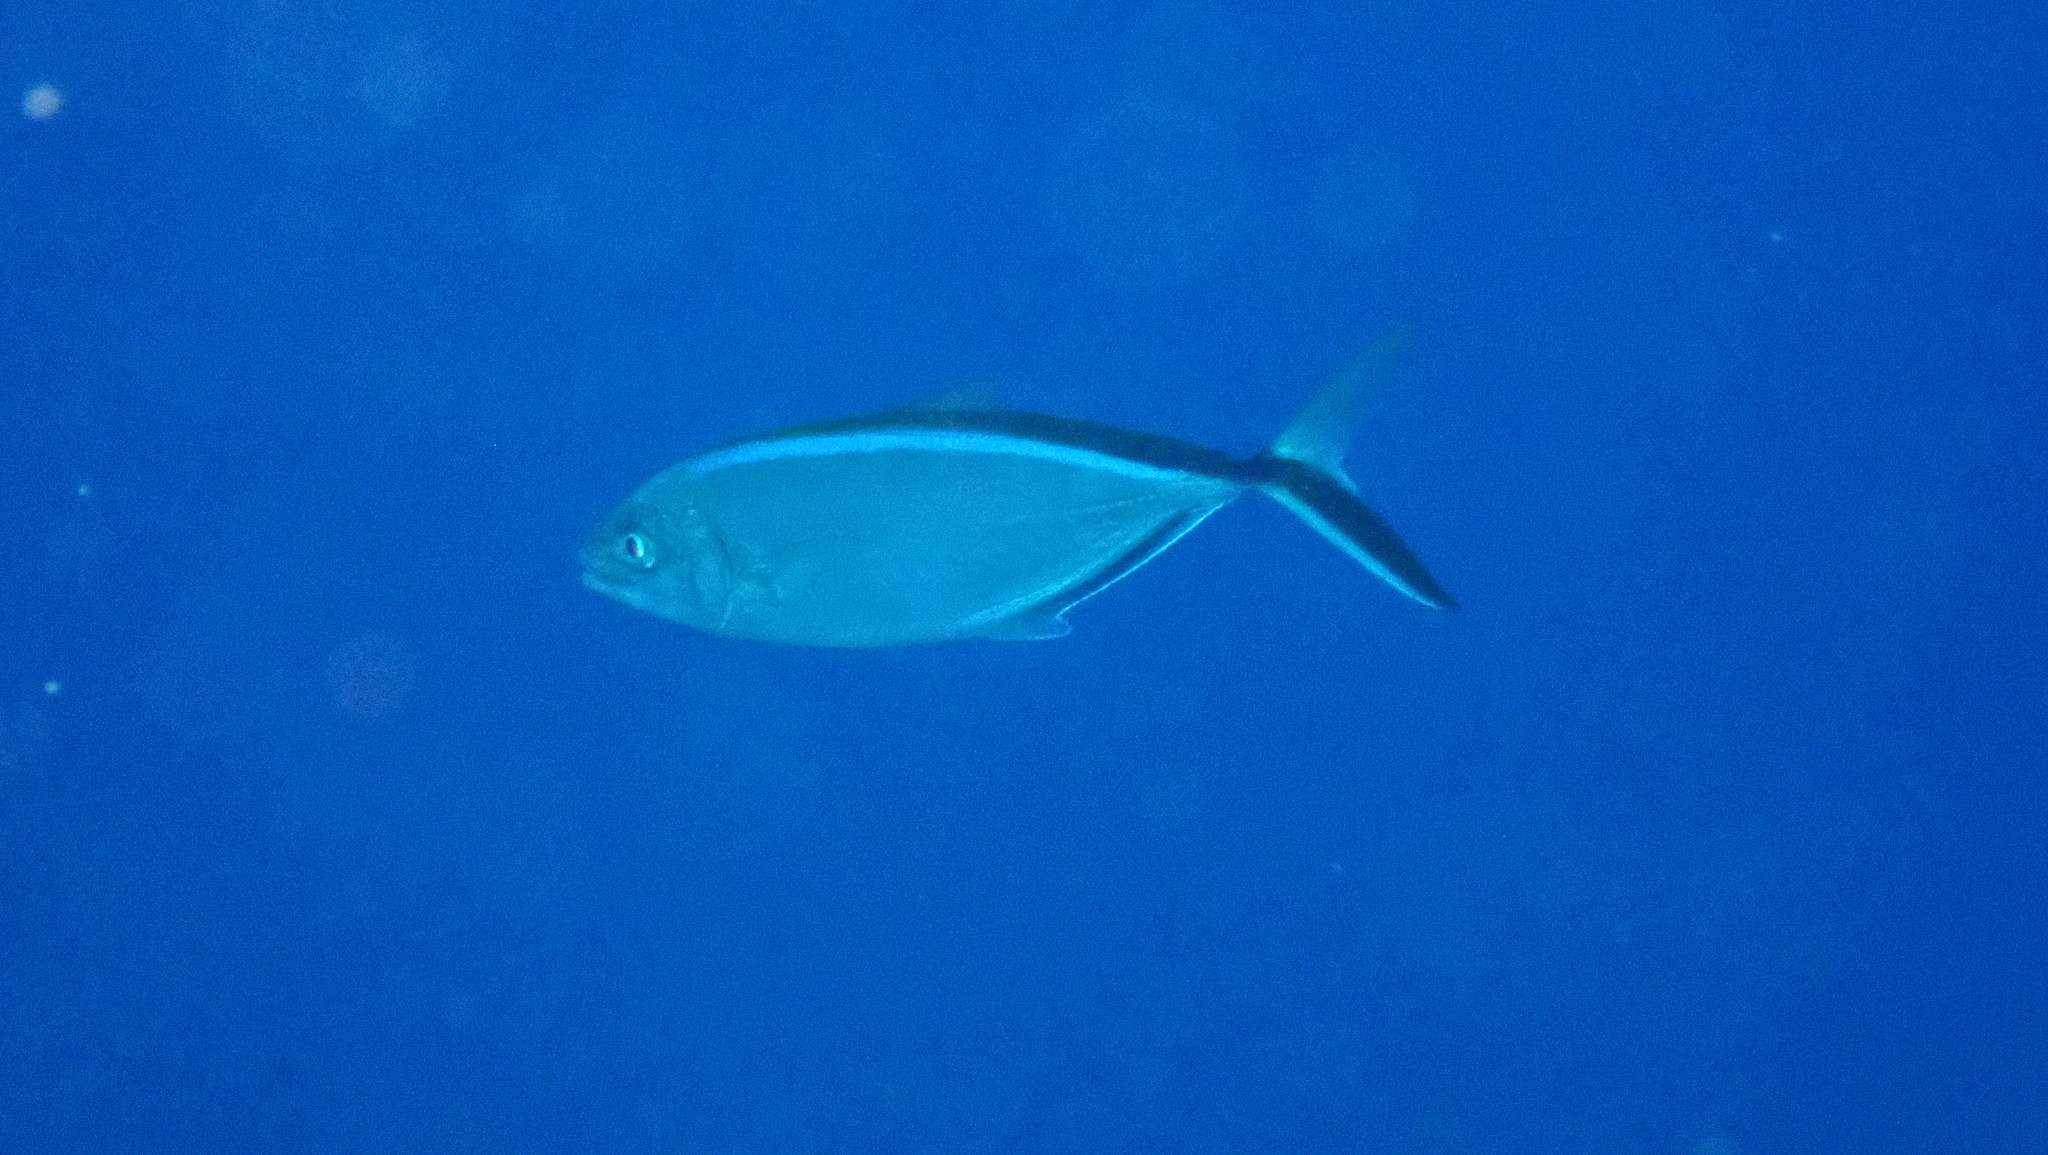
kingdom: Animalia
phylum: Chordata
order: Perciformes
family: Carangidae
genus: Caranx
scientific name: Caranx ruber
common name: Bar jack
